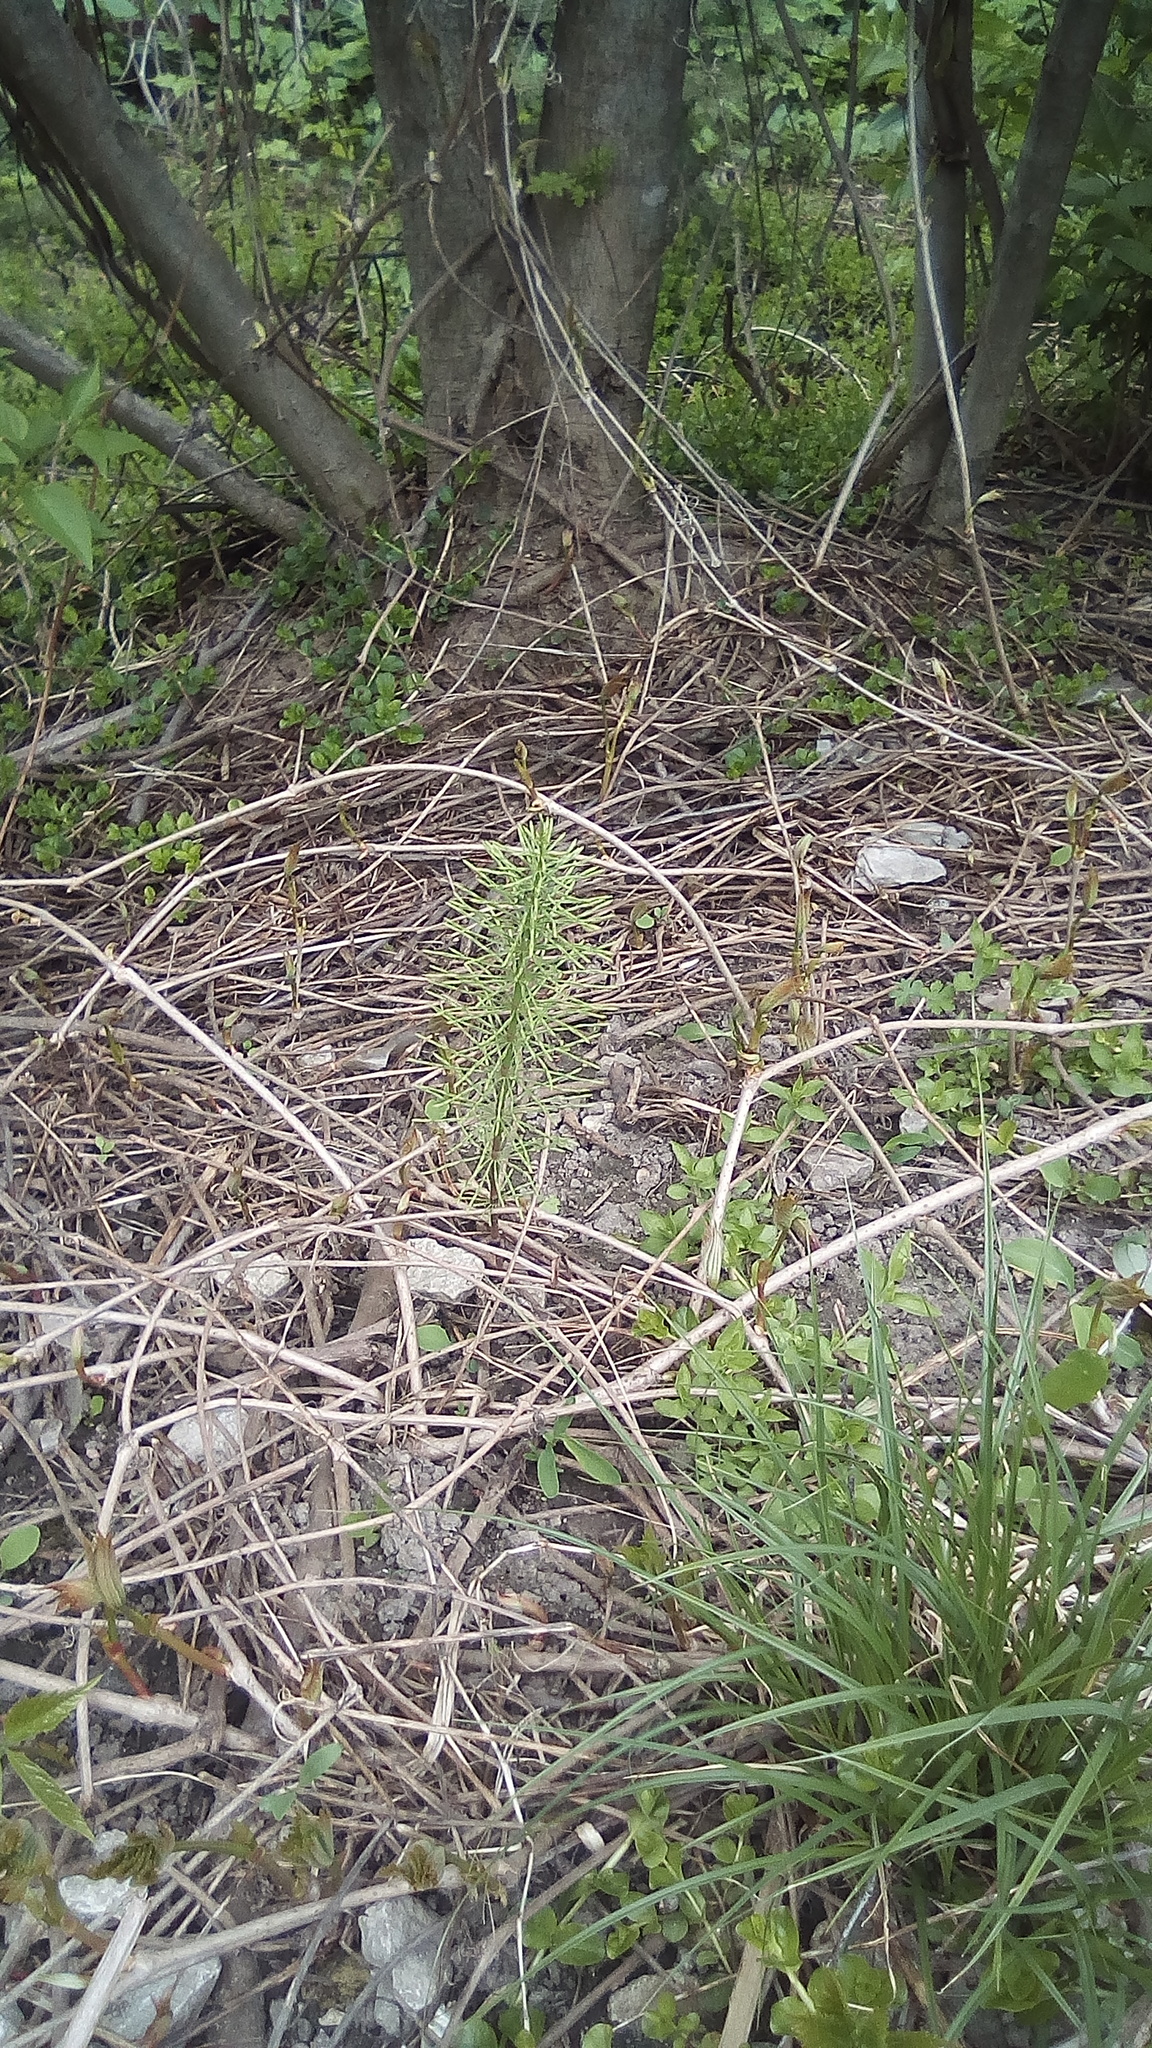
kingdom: Plantae
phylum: Tracheophyta
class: Polypodiopsida
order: Equisetales
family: Equisetaceae
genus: Equisetum
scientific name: Equisetum arvense
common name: Field horsetail
